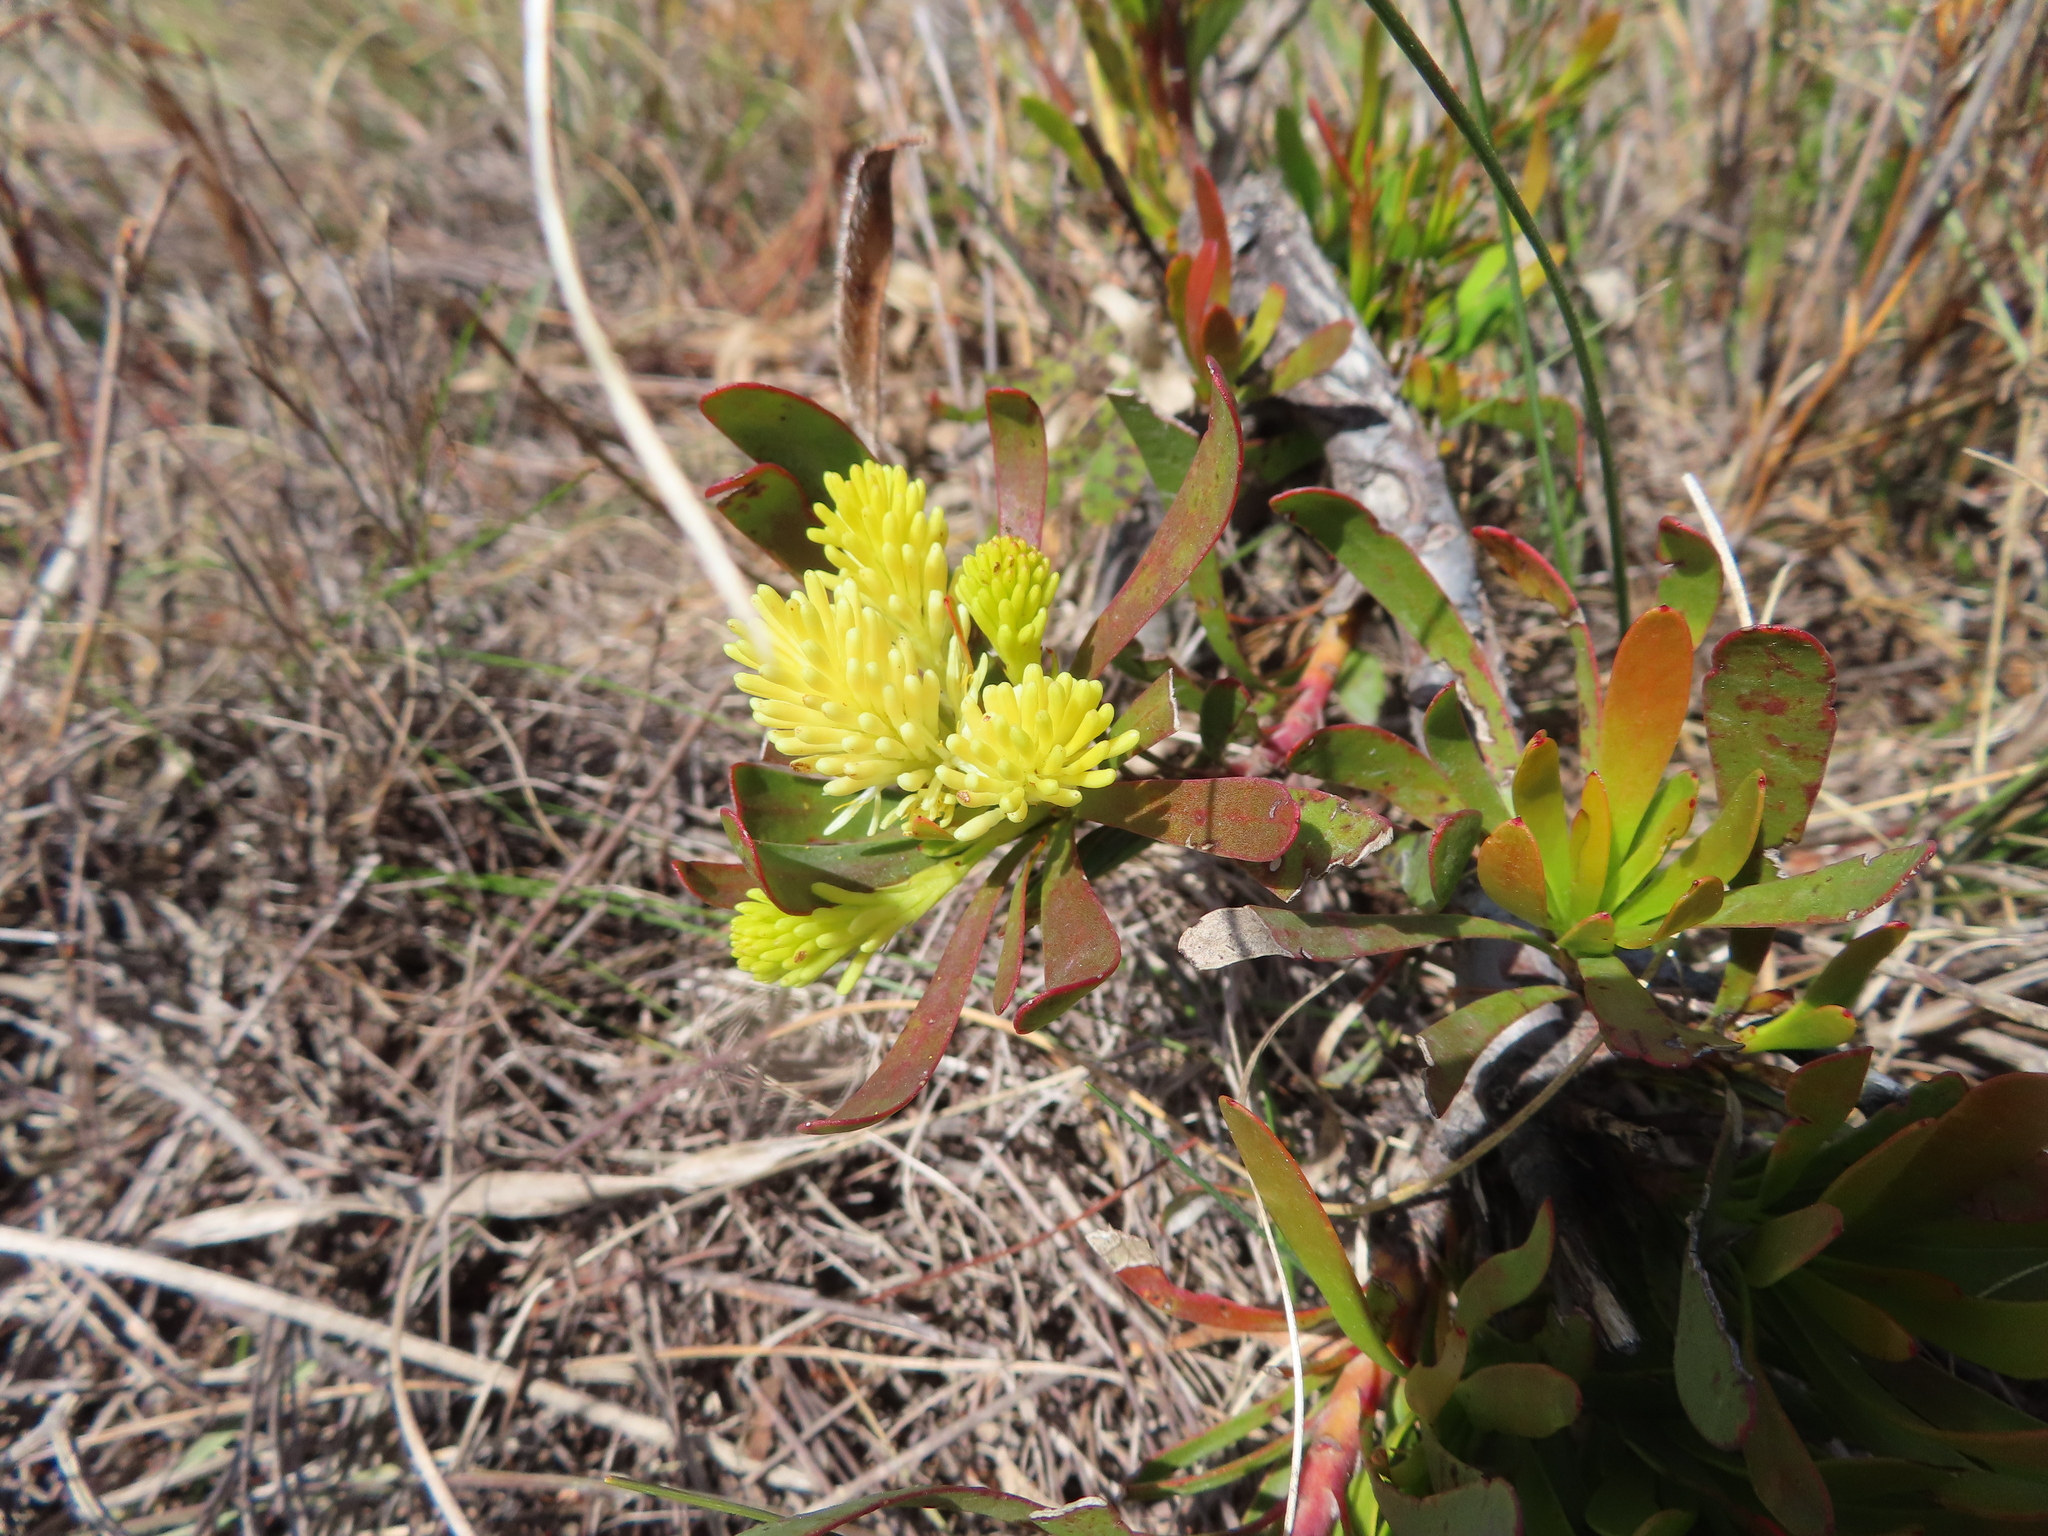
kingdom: Plantae
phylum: Tracheophyta
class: Magnoliopsida
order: Proteales
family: Proteaceae
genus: Aulax
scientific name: Aulax umbellata
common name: Broad-leaf featherbush
